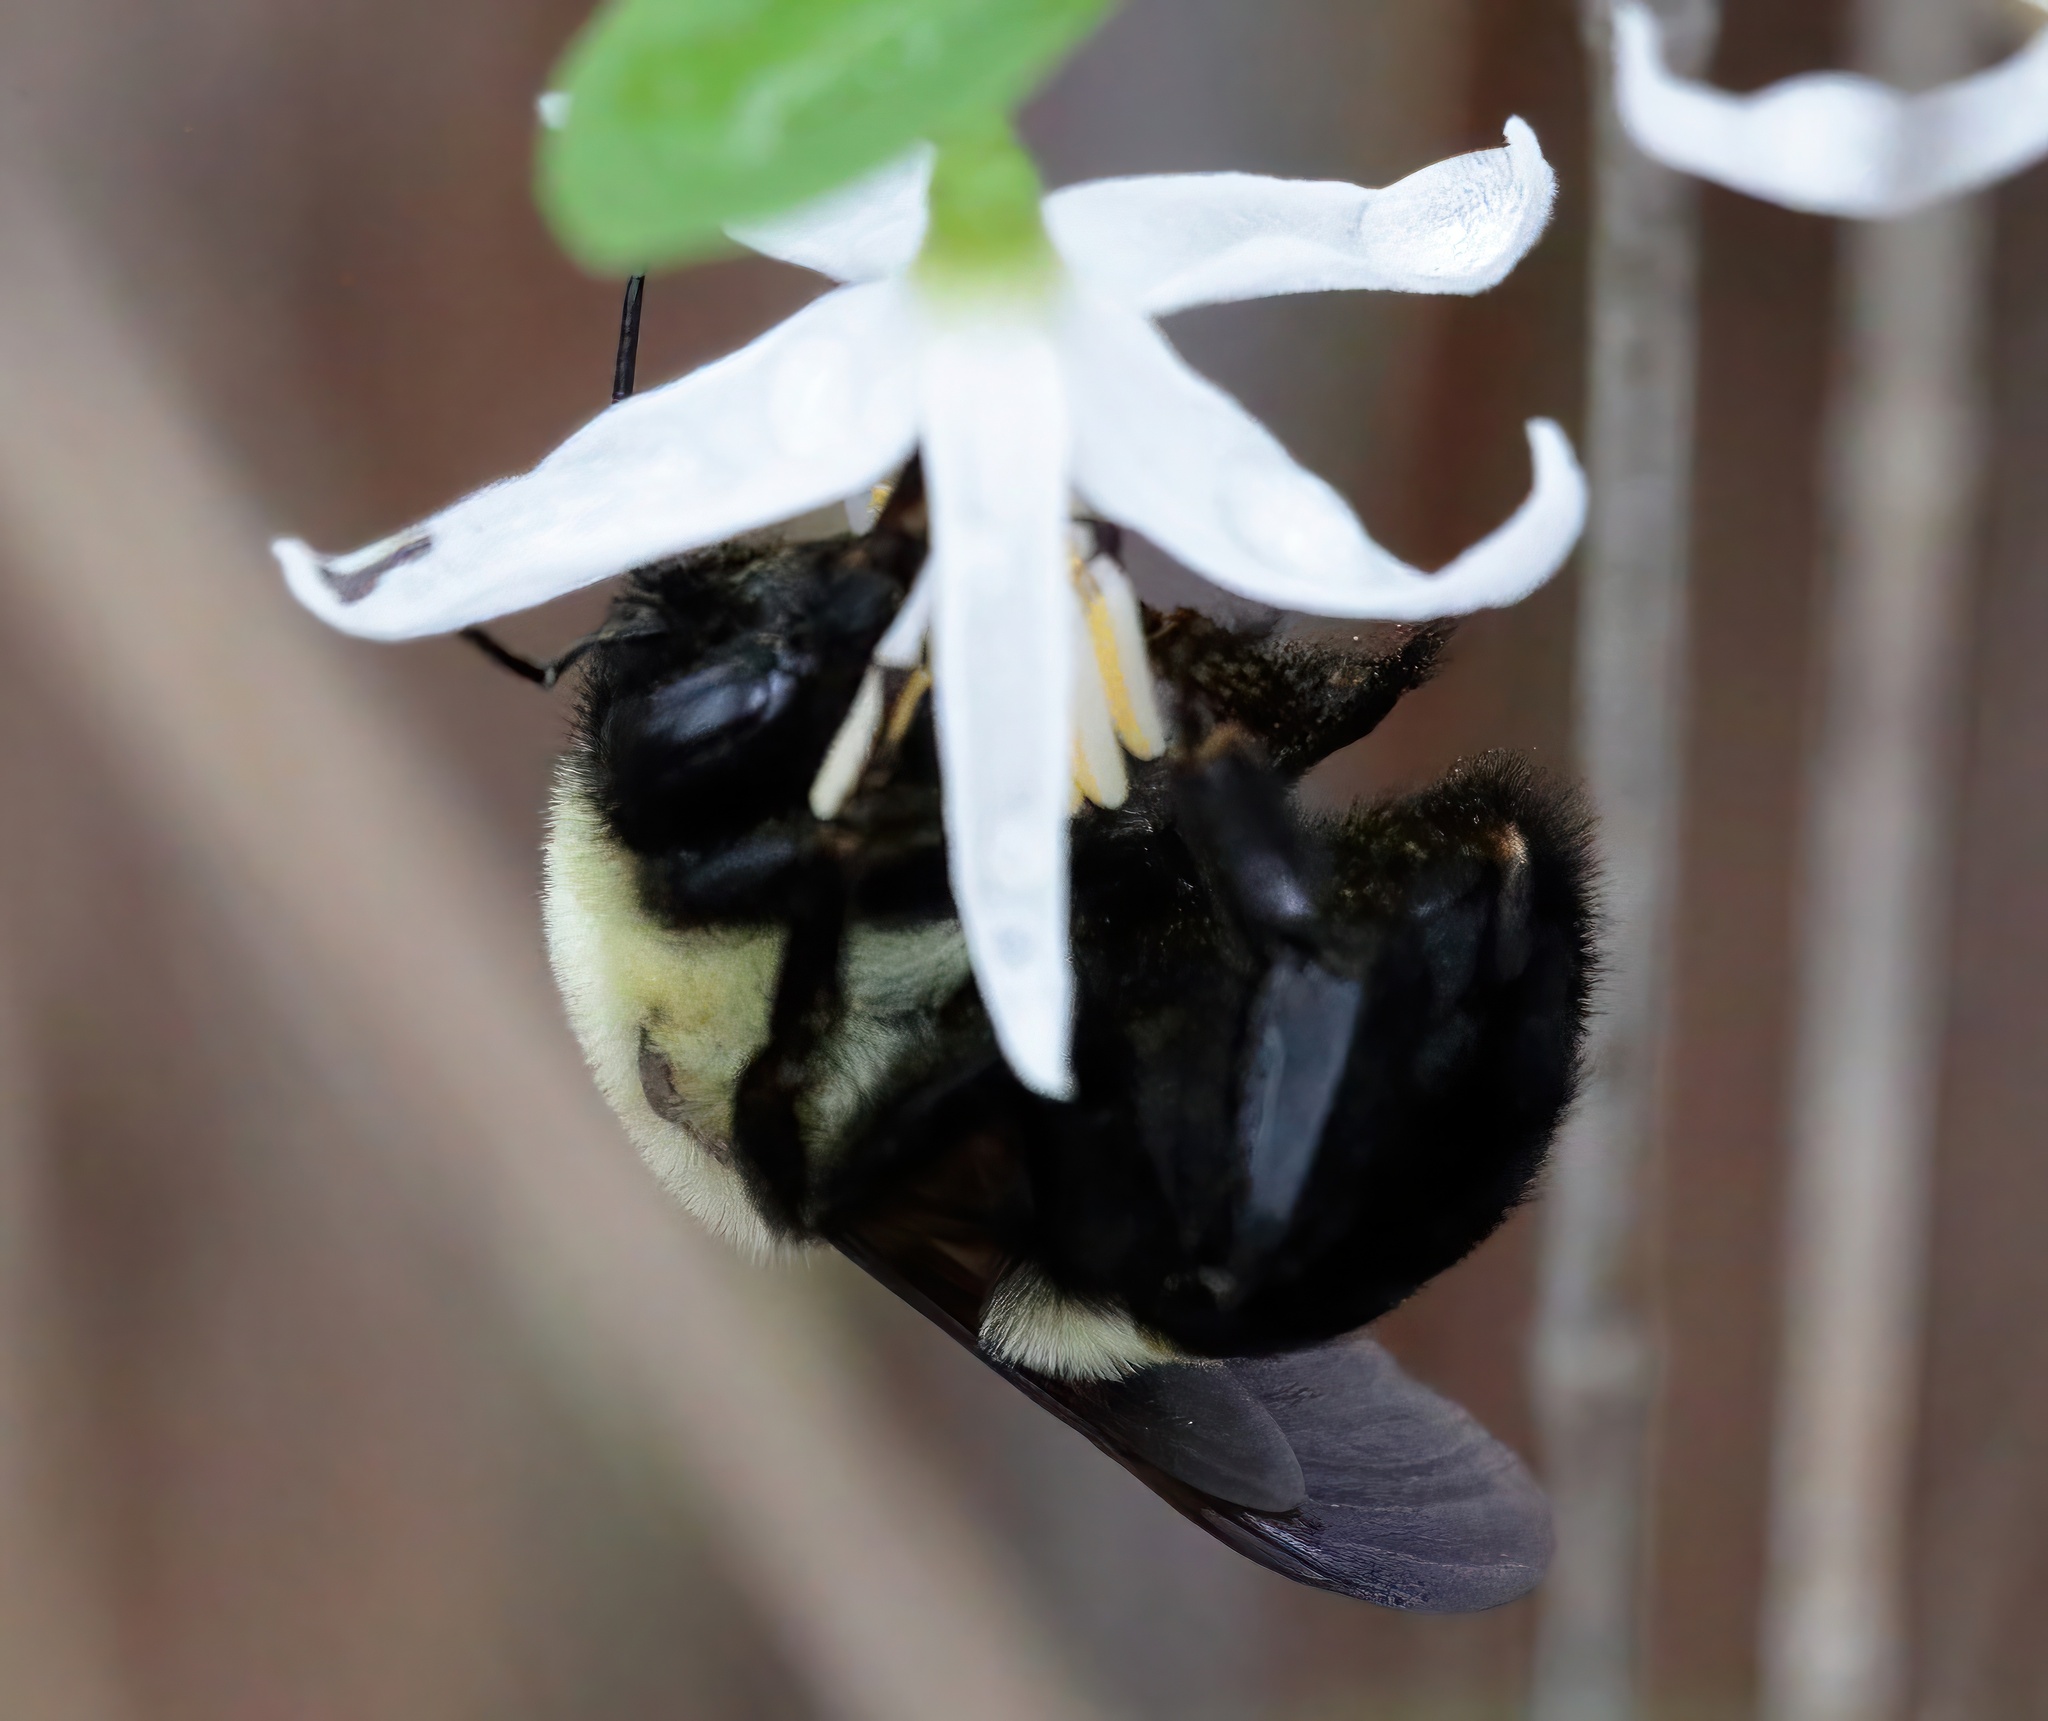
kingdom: Animalia
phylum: Arthropoda
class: Insecta
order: Hymenoptera
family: Apidae
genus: Bombus
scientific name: Bombus griseocollis
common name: Brown-belted bumble bee
